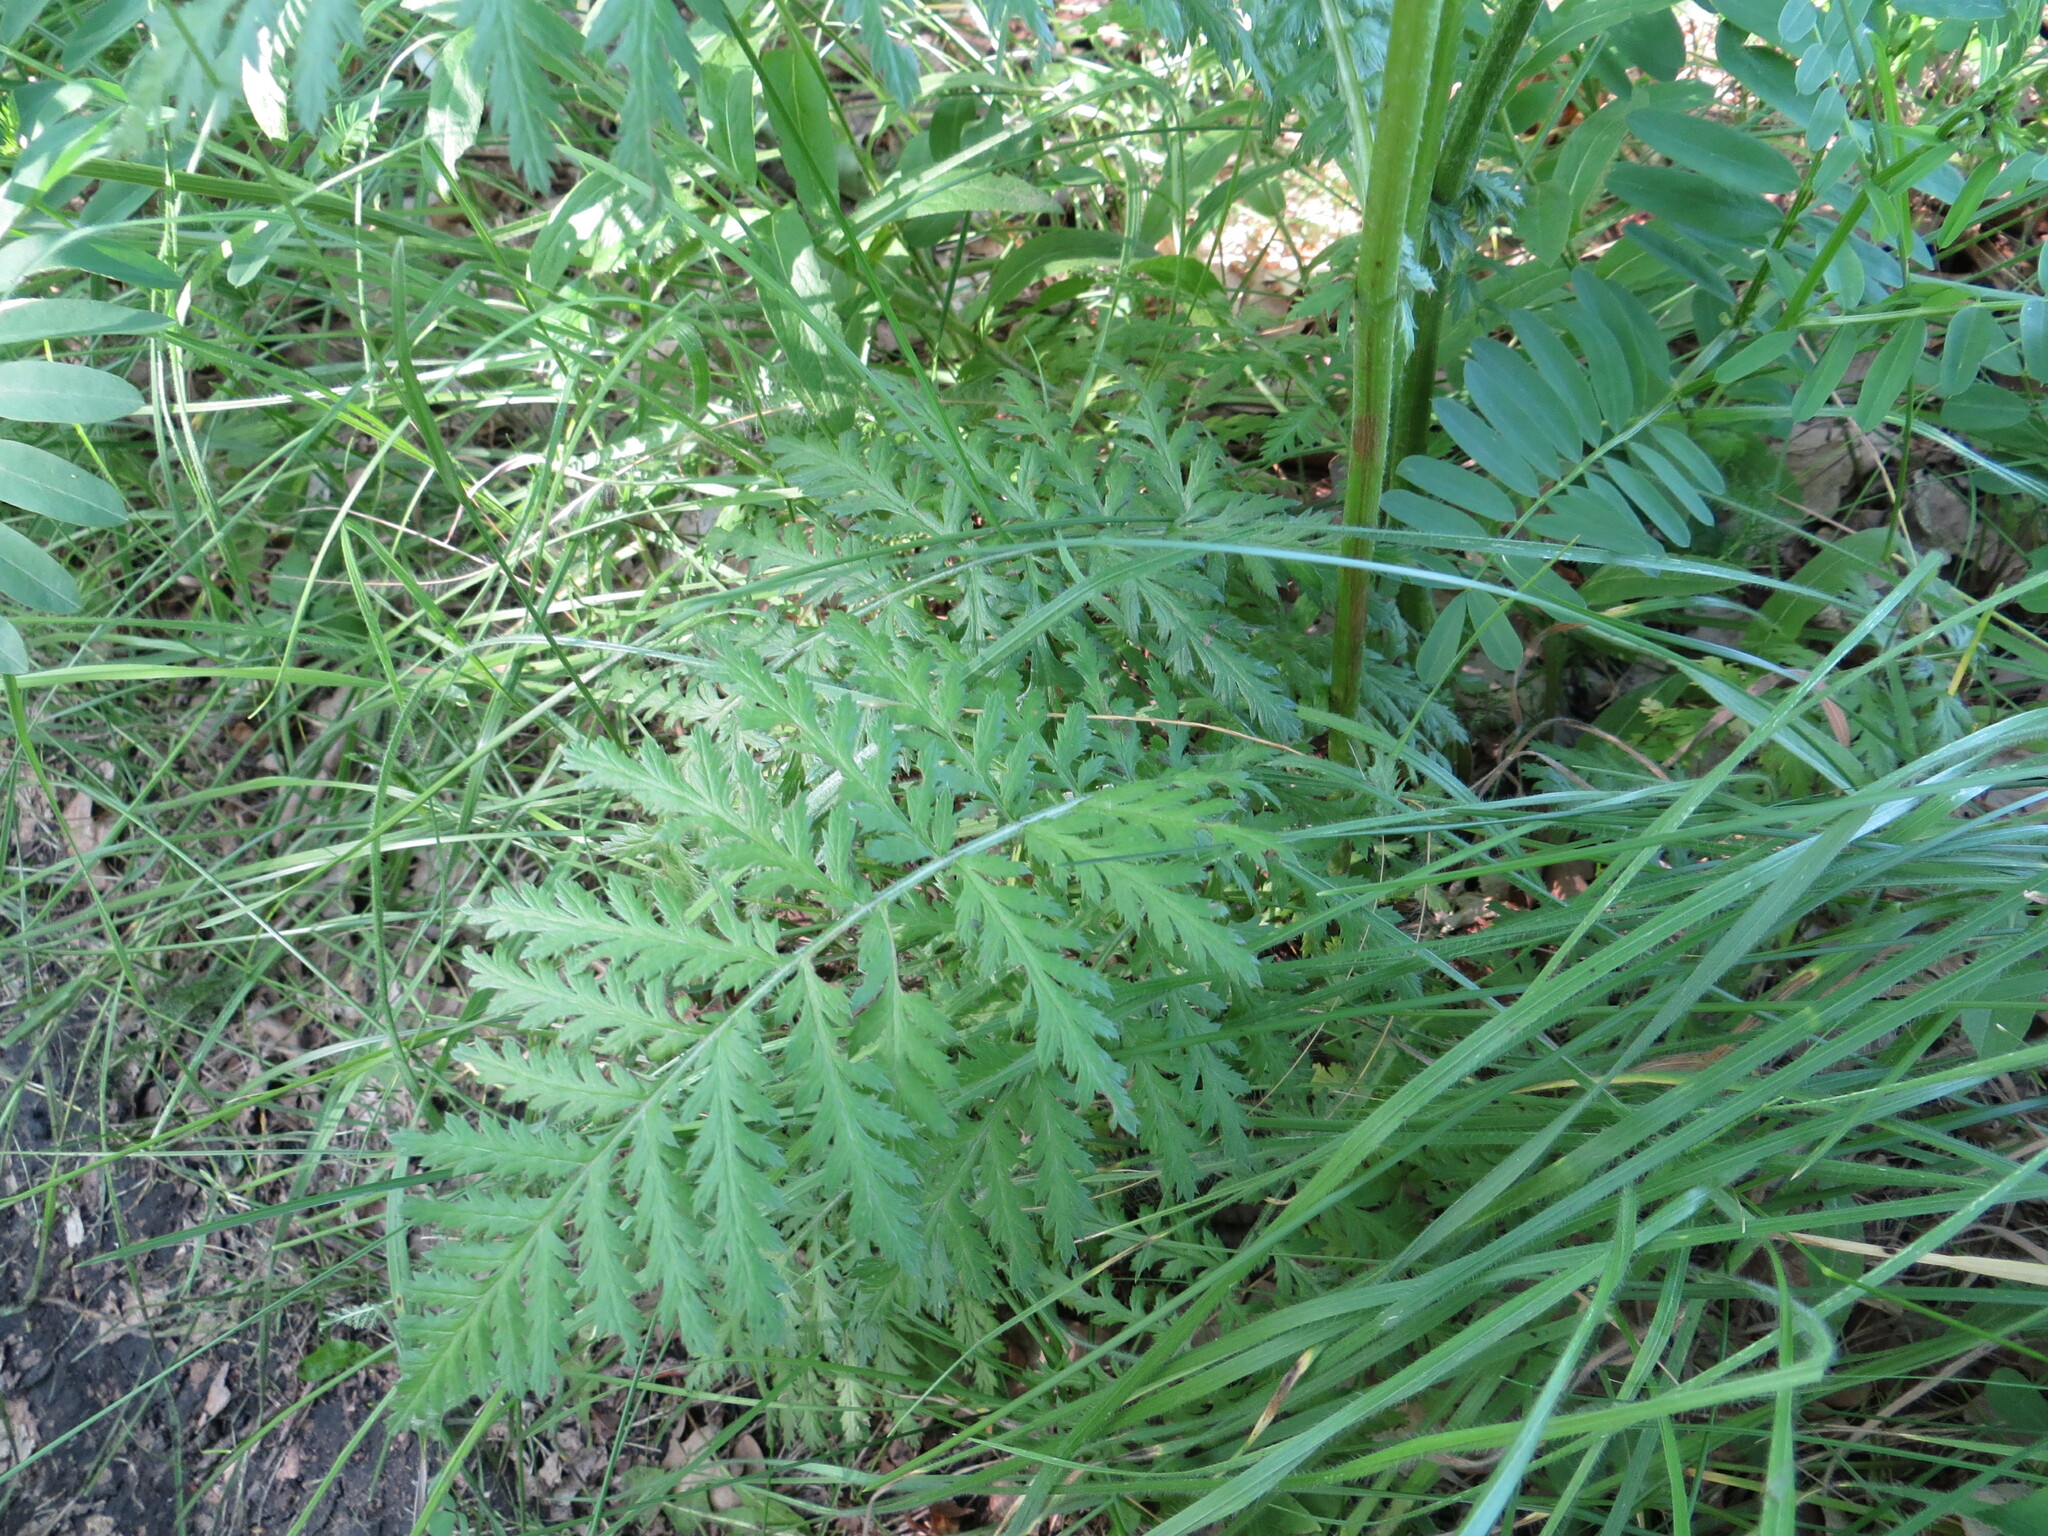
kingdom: Plantae
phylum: Tracheophyta
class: Magnoliopsida
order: Asterales
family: Asteraceae
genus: Tanacetum
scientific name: Tanacetum corymbosum
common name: Scentless feverfew
